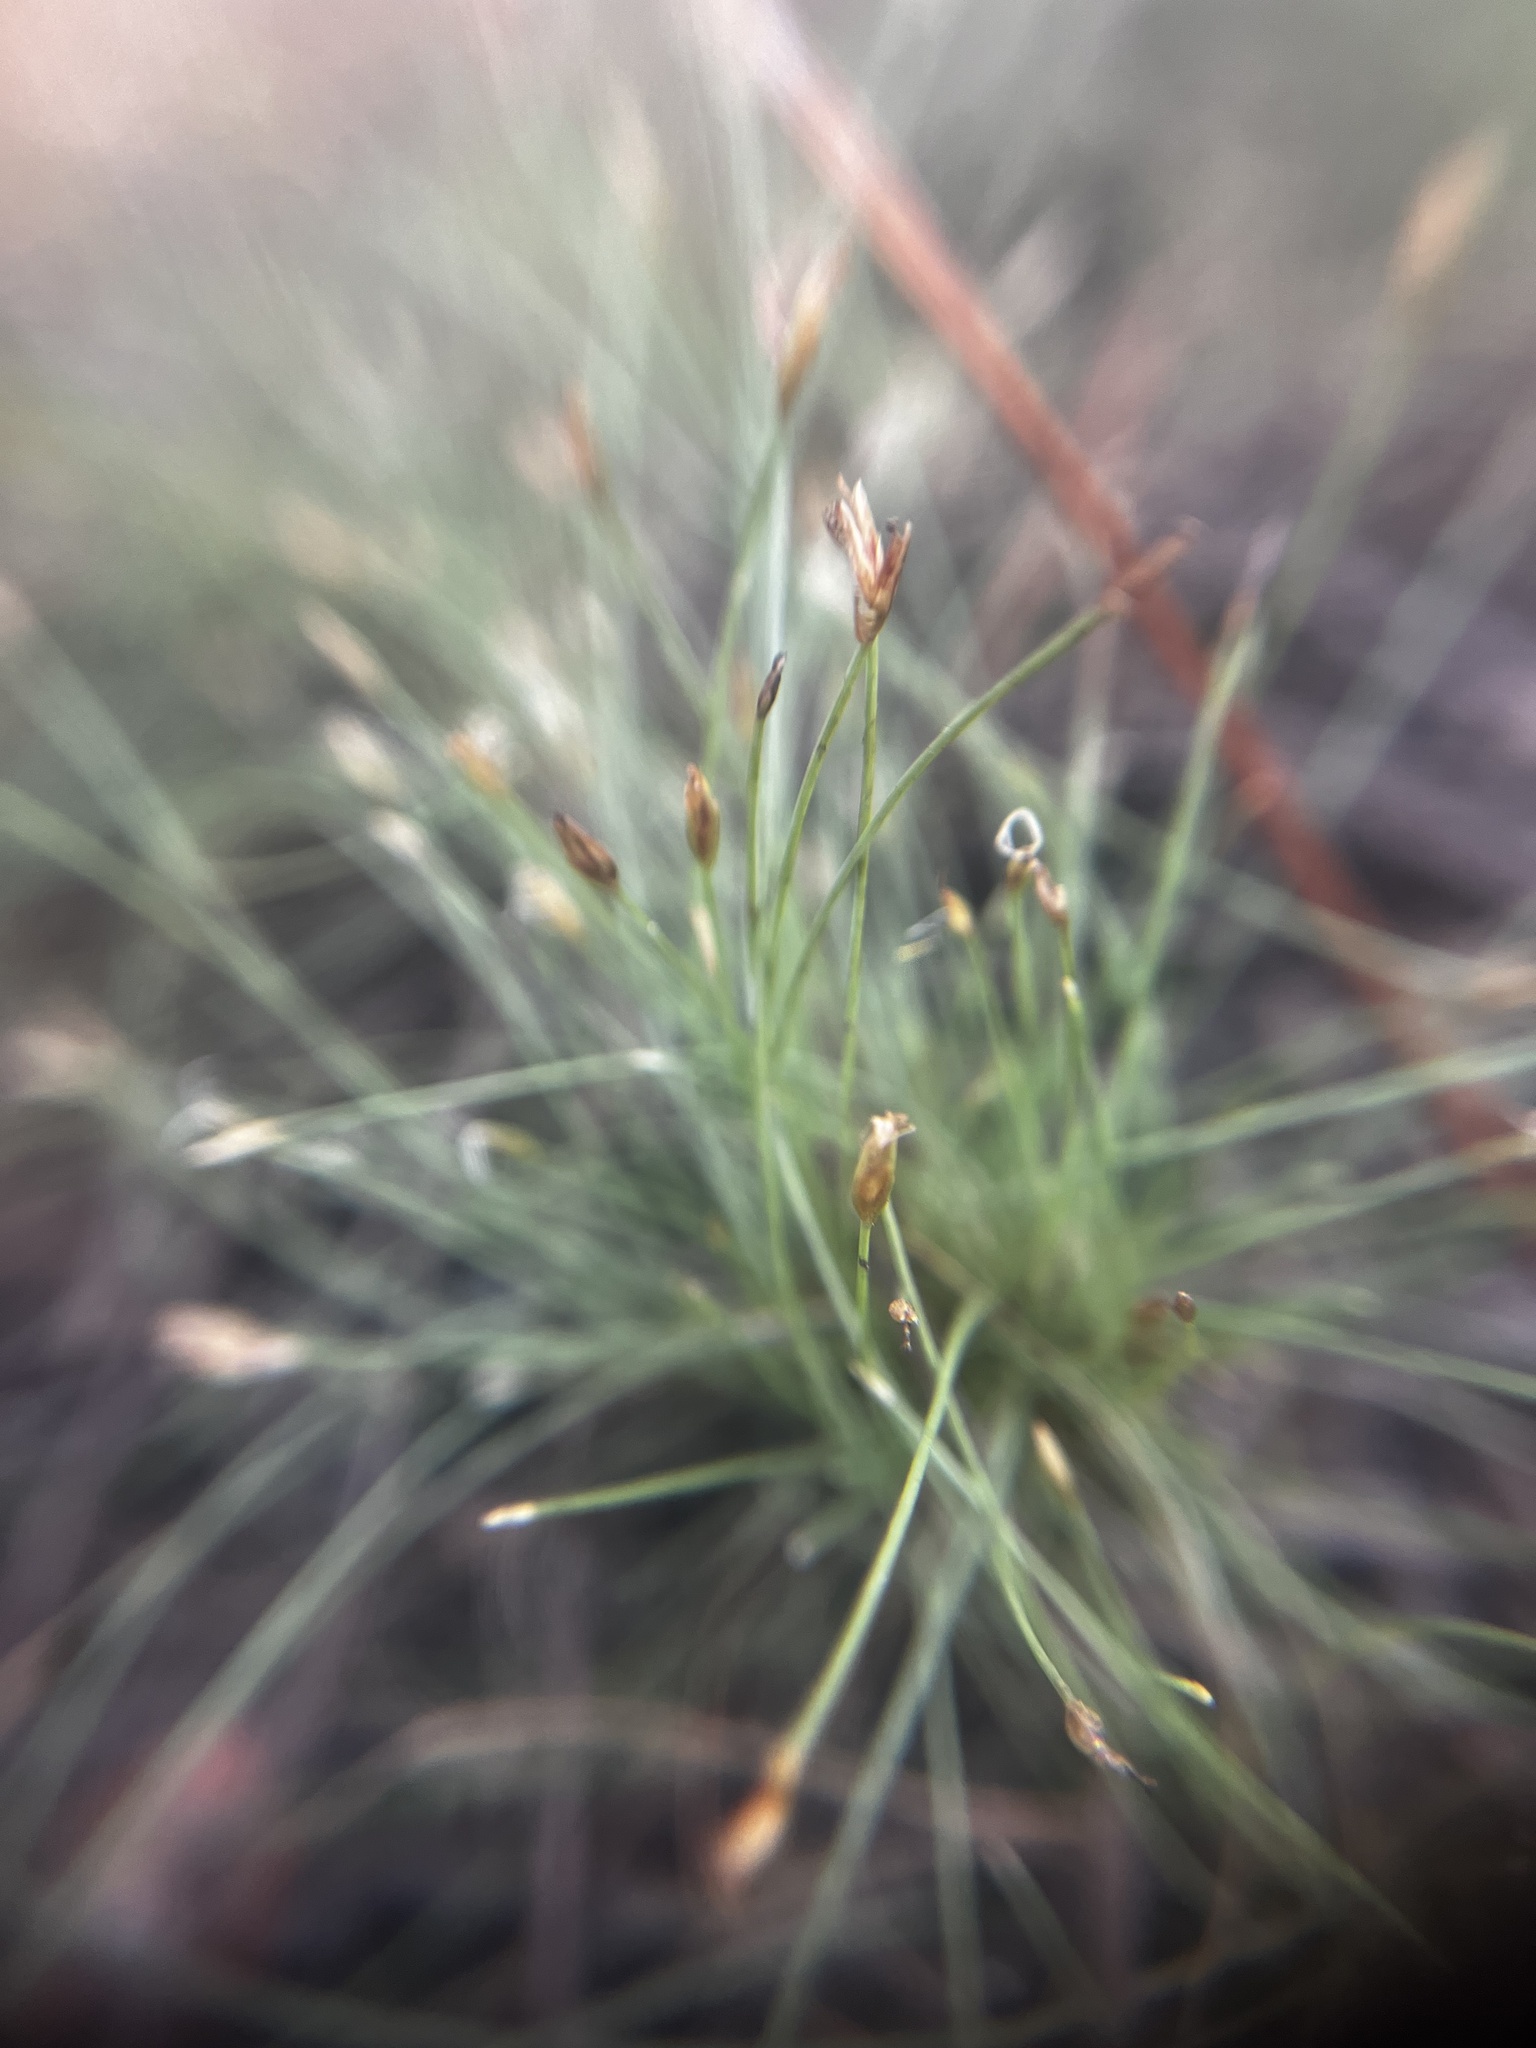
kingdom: Plantae
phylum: Tracheophyta
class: Liliopsida
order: Poales
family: Cyperaceae
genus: Eleocharis
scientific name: Eleocharis baldwinii
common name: Baldwin's spike-rush
